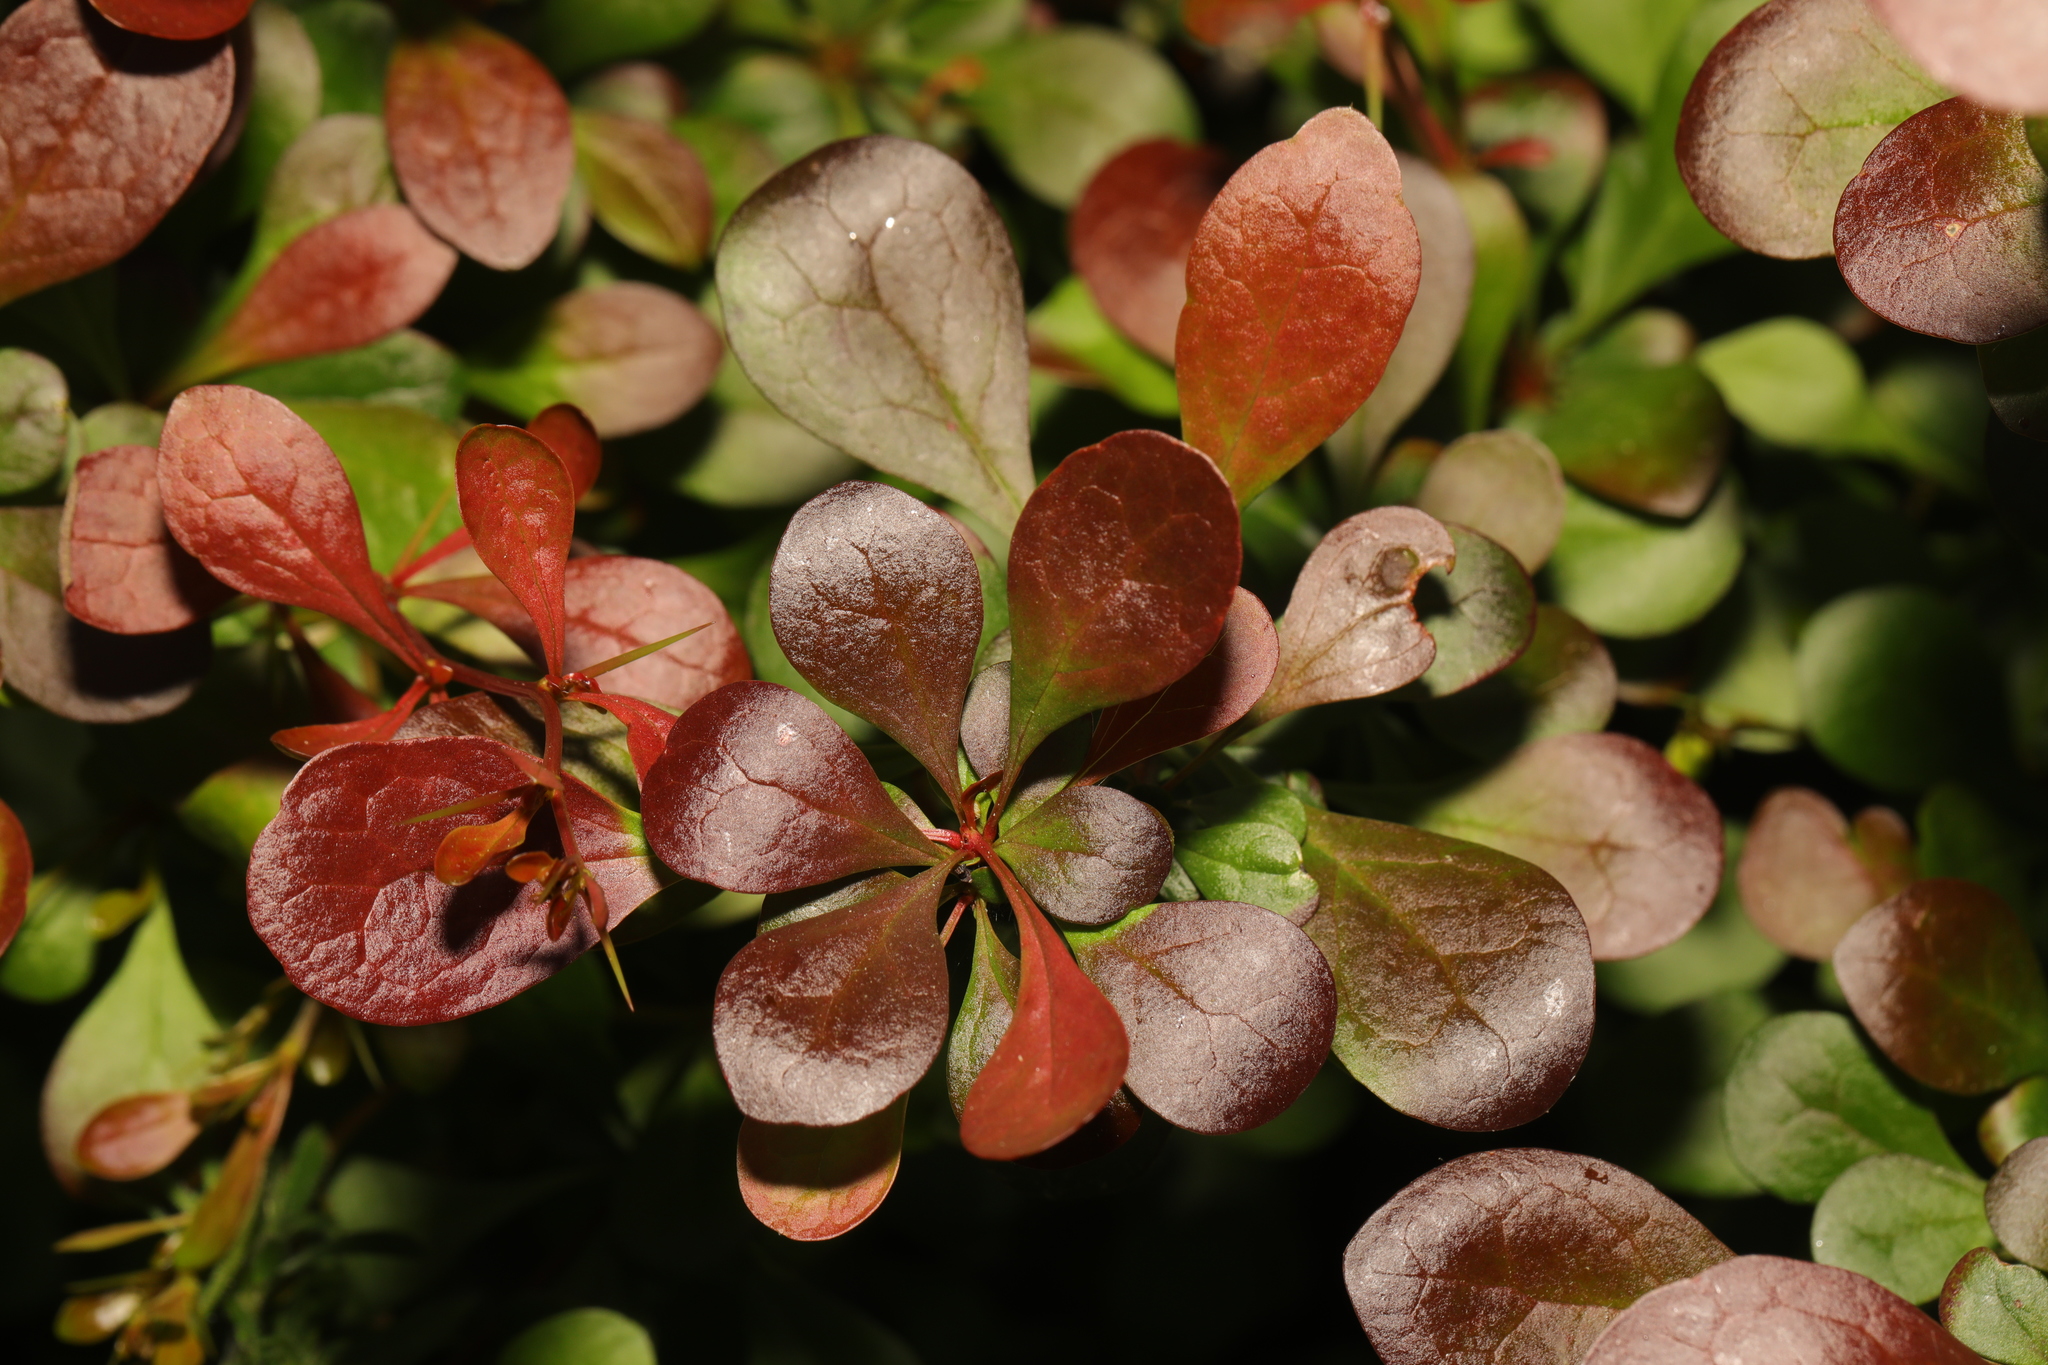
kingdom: Plantae
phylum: Tracheophyta
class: Magnoliopsida
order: Ranunculales
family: Berberidaceae
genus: Berberis
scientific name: Berberis thunbergii
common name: Japanese barberry
